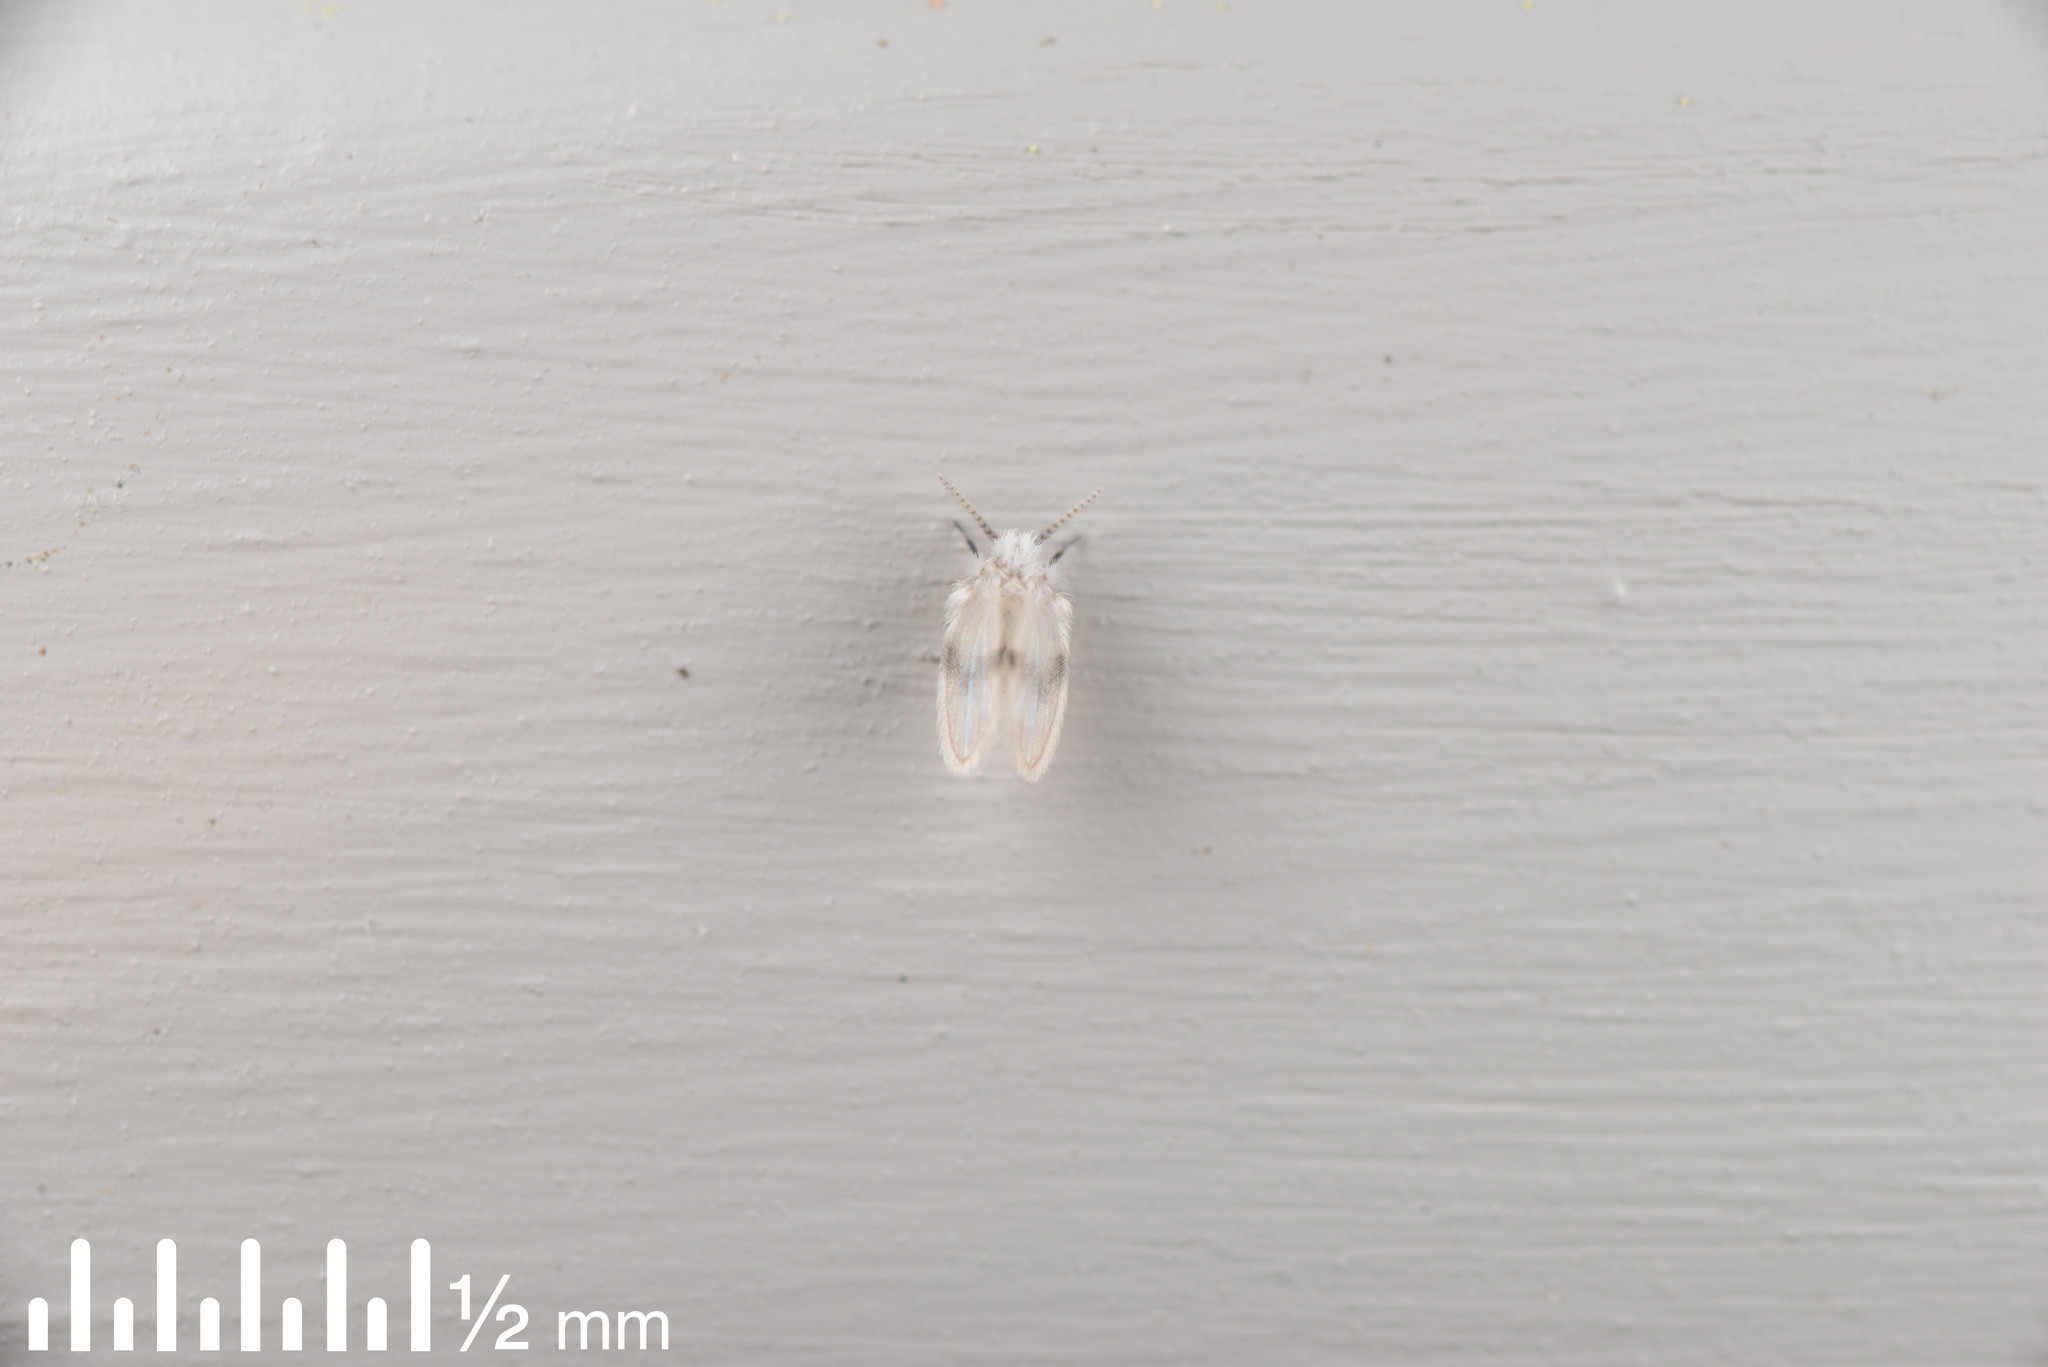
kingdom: Animalia
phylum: Arthropoda
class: Insecta
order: Diptera
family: Psychodidae
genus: Psychoda
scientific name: Psychoda sigma
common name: Moth fly
